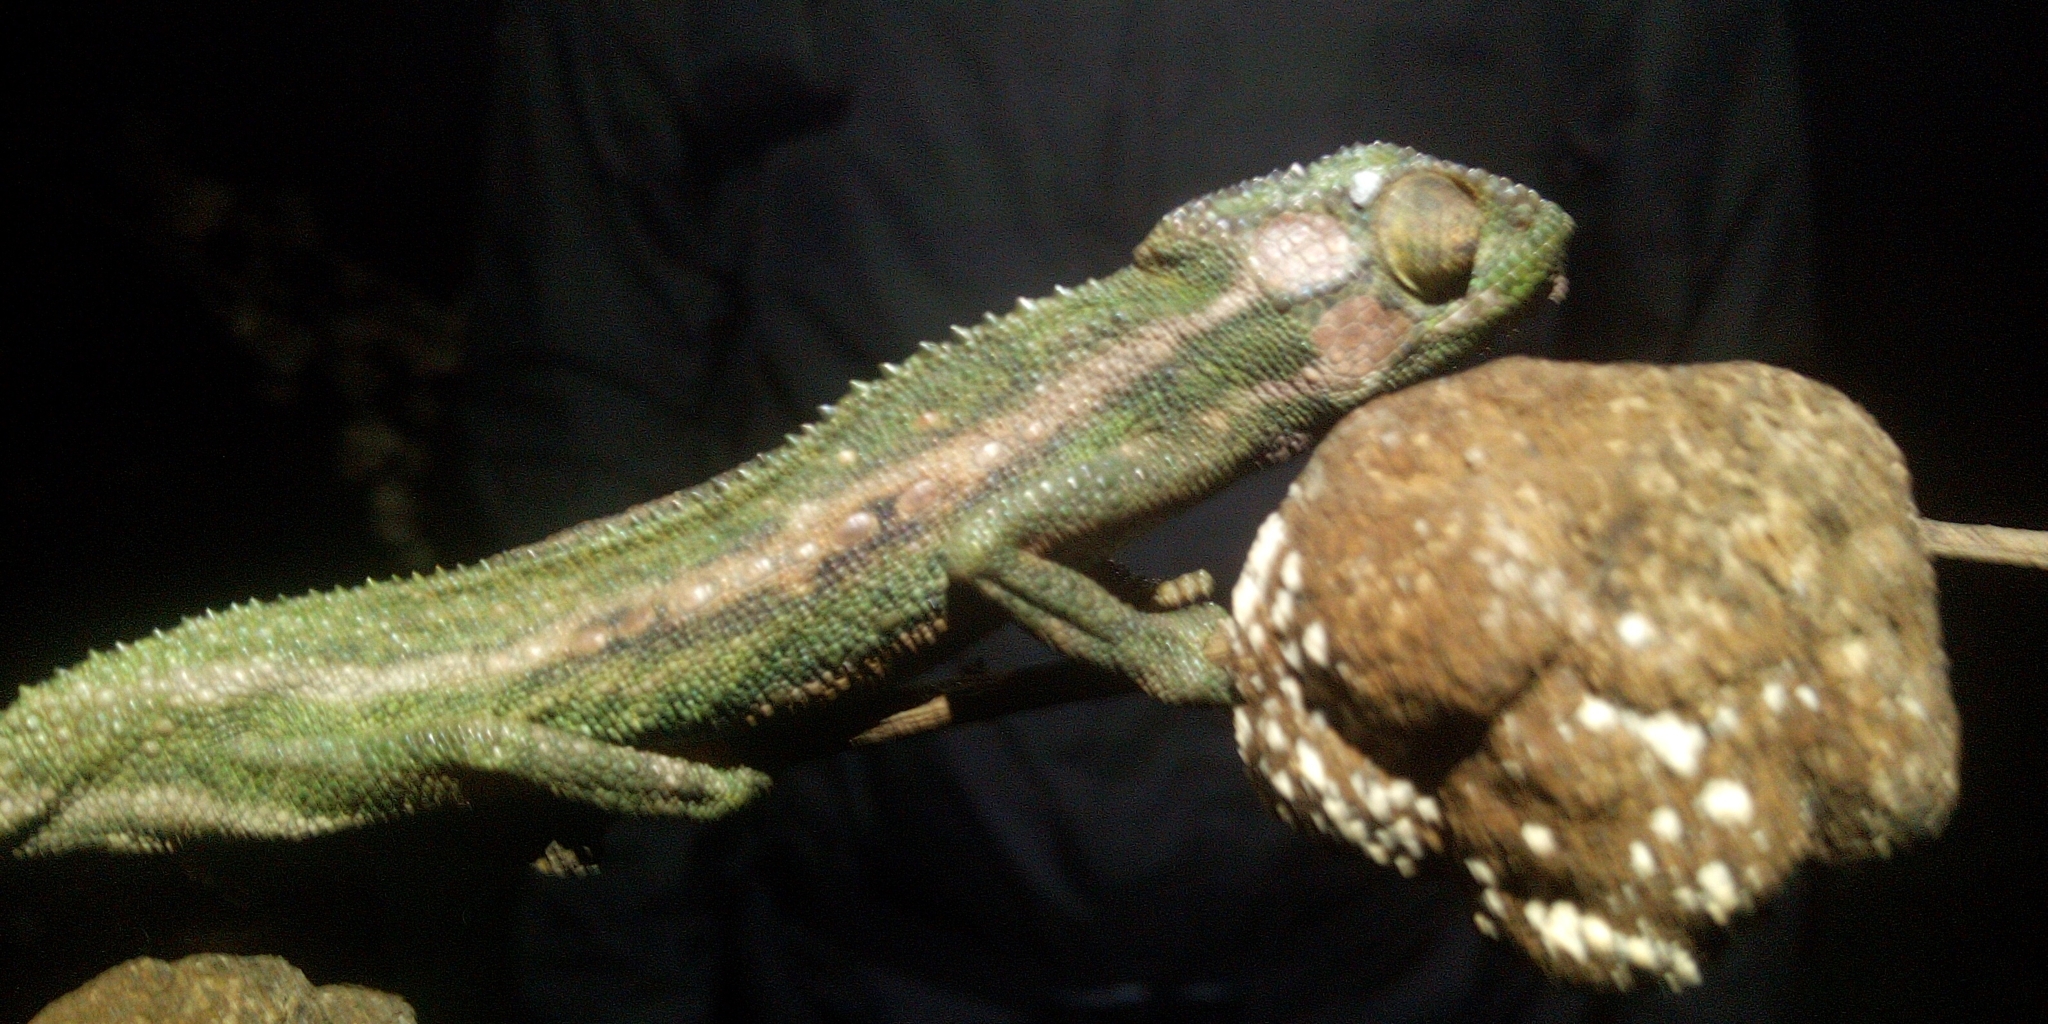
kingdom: Animalia
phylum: Chordata
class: Squamata
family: Chamaeleonidae
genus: Bradypodion
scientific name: Bradypodion pumilum
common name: Cape dwarf chameleon
